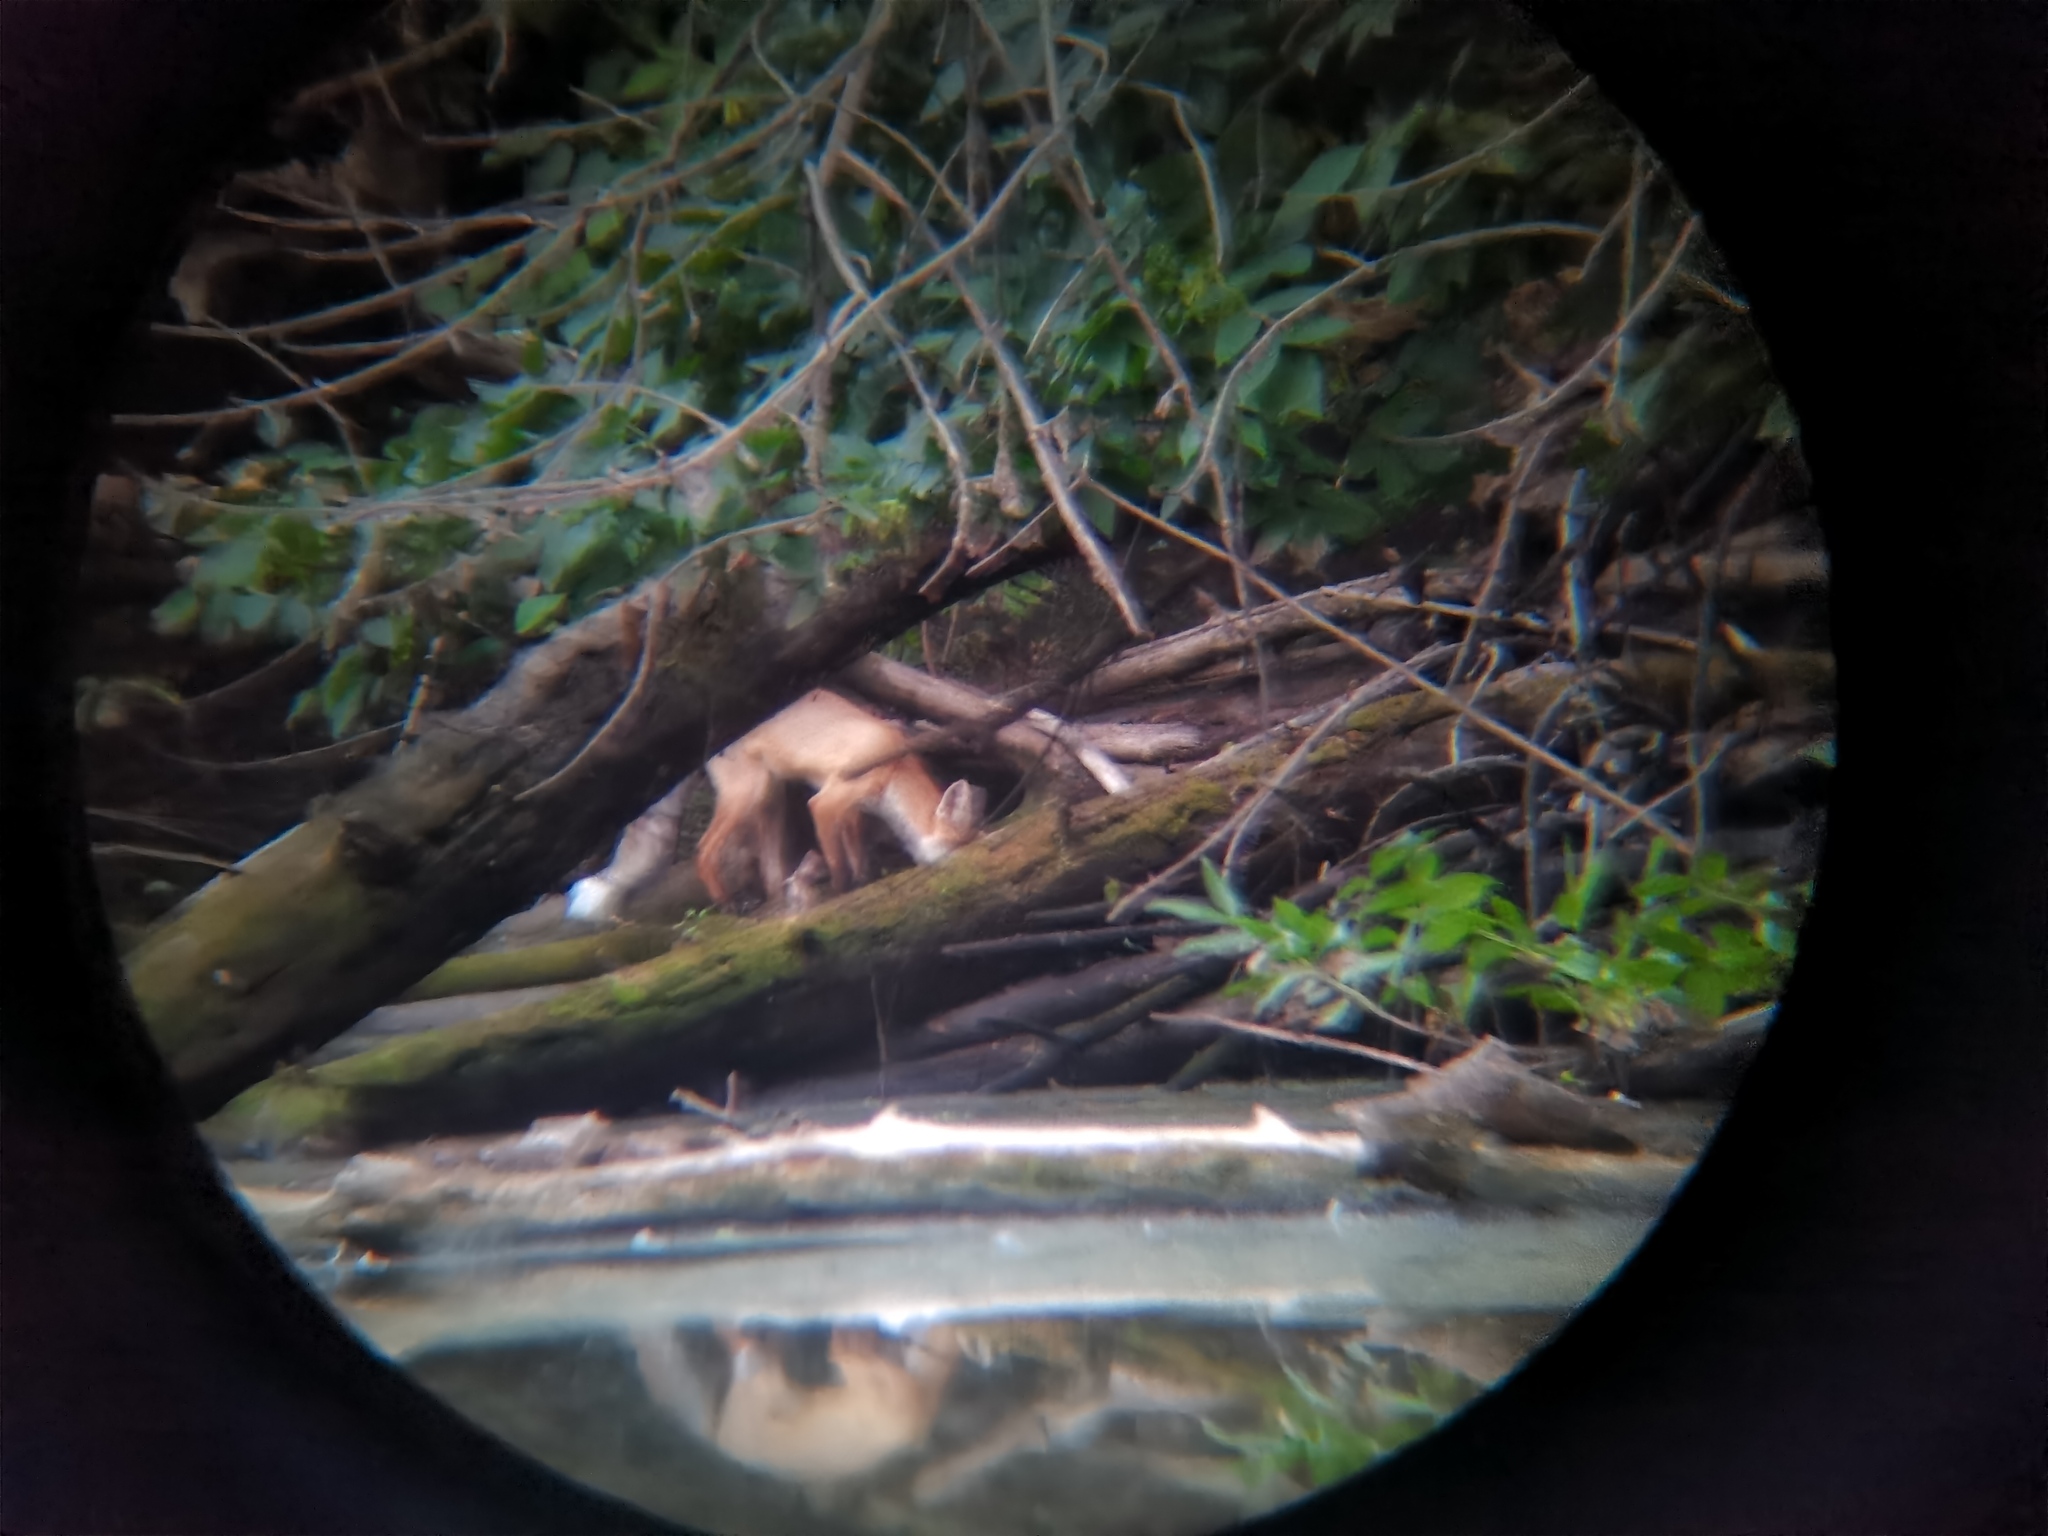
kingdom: Animalia
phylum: Chordata
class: Mammalia
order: Carnivora
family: Canidae
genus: Vulpes
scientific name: Vulpes vulpes
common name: Red fox
